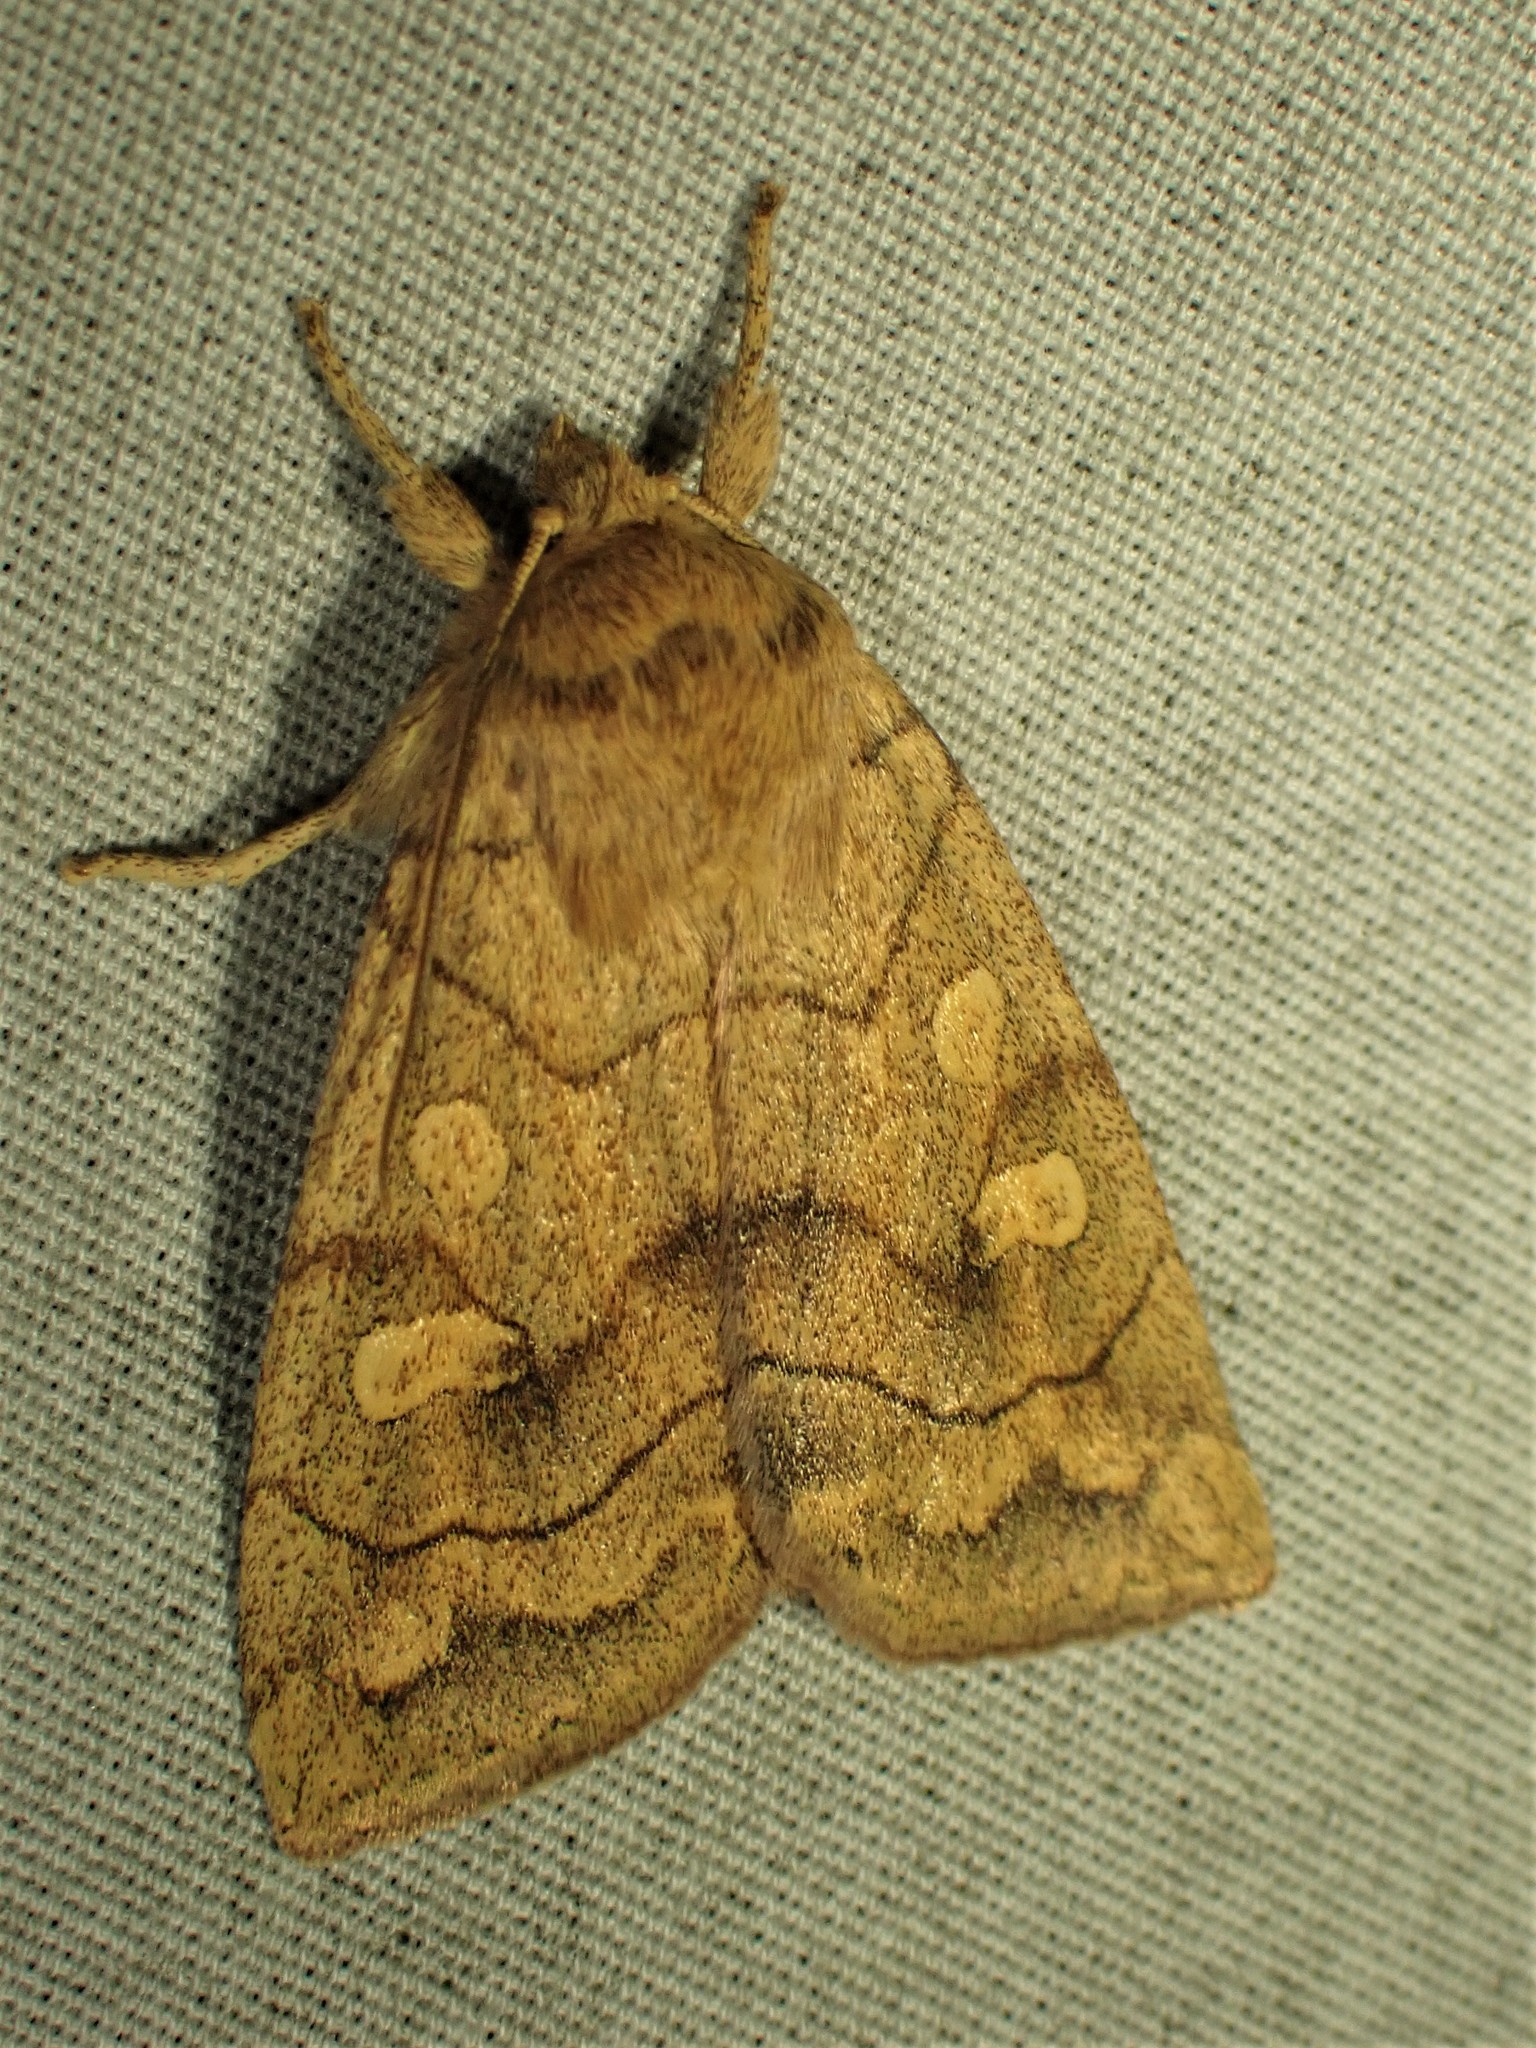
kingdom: Animalia
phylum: Arthropoda
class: Insecta
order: Lepidoptera
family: Noctuidae
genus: Enargia
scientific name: Enargia decolor
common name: Aspen twoleaf tier moth
